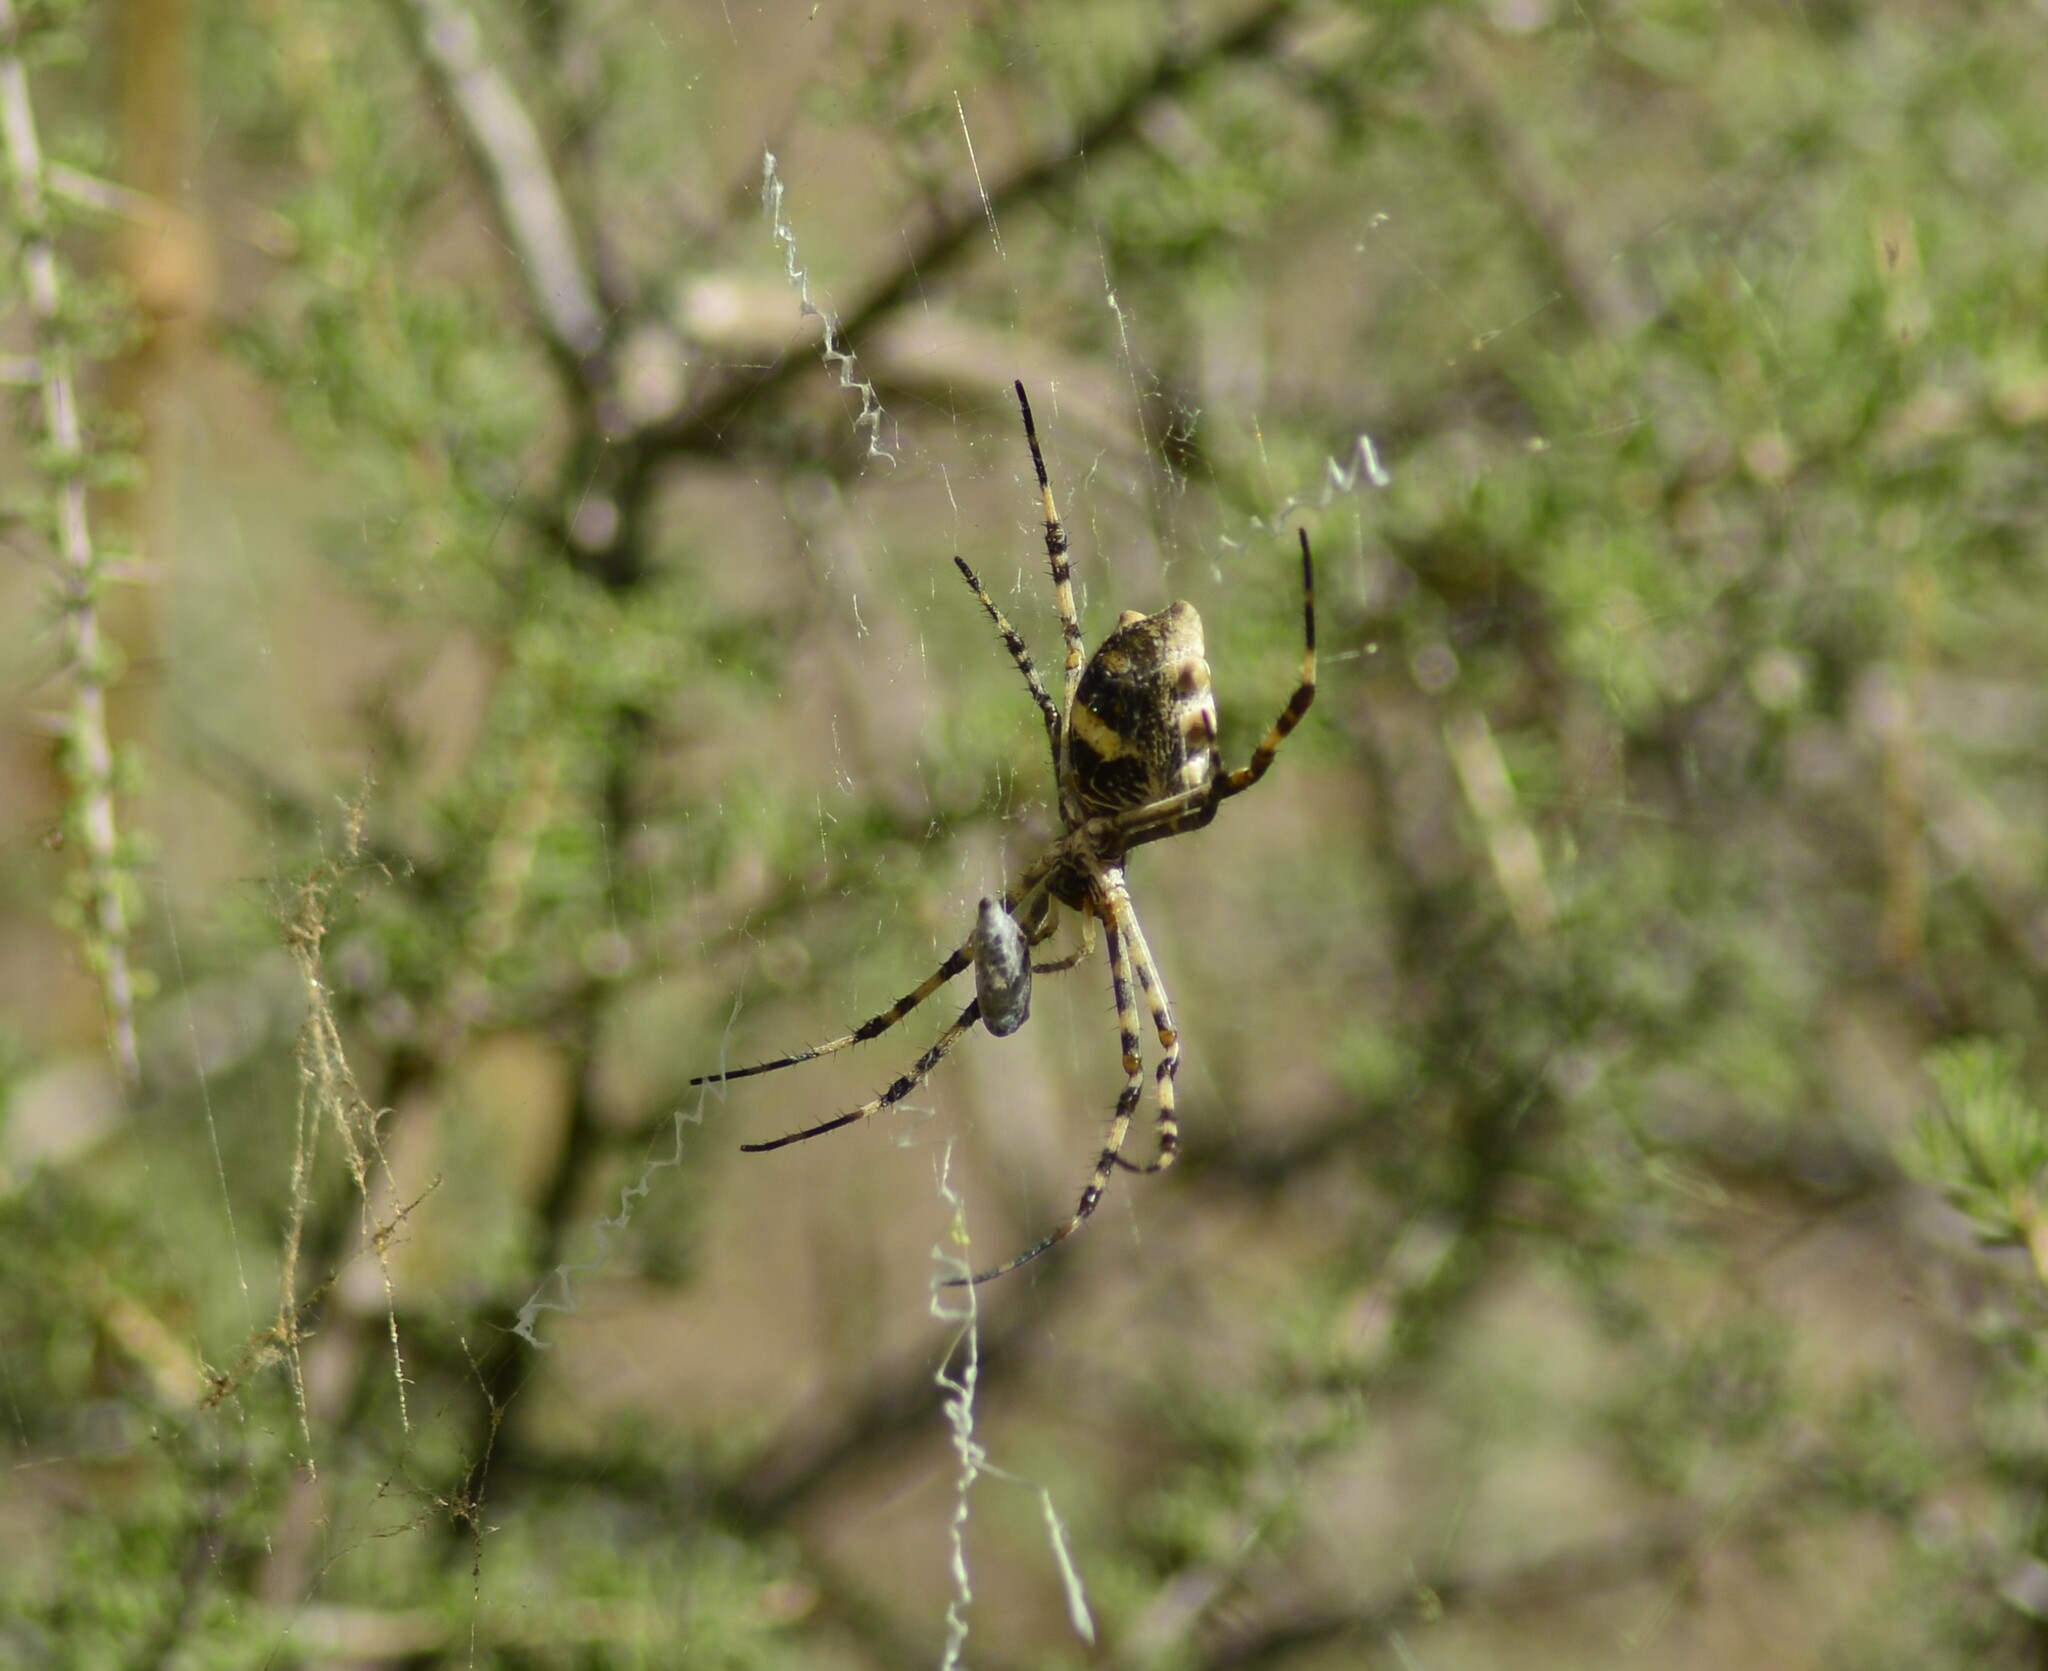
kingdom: Animalia
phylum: Arthropoda
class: Arachnida
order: Araneae
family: Araneidae
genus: Argiope
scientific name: Argiope argentata
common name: Orb weavers
